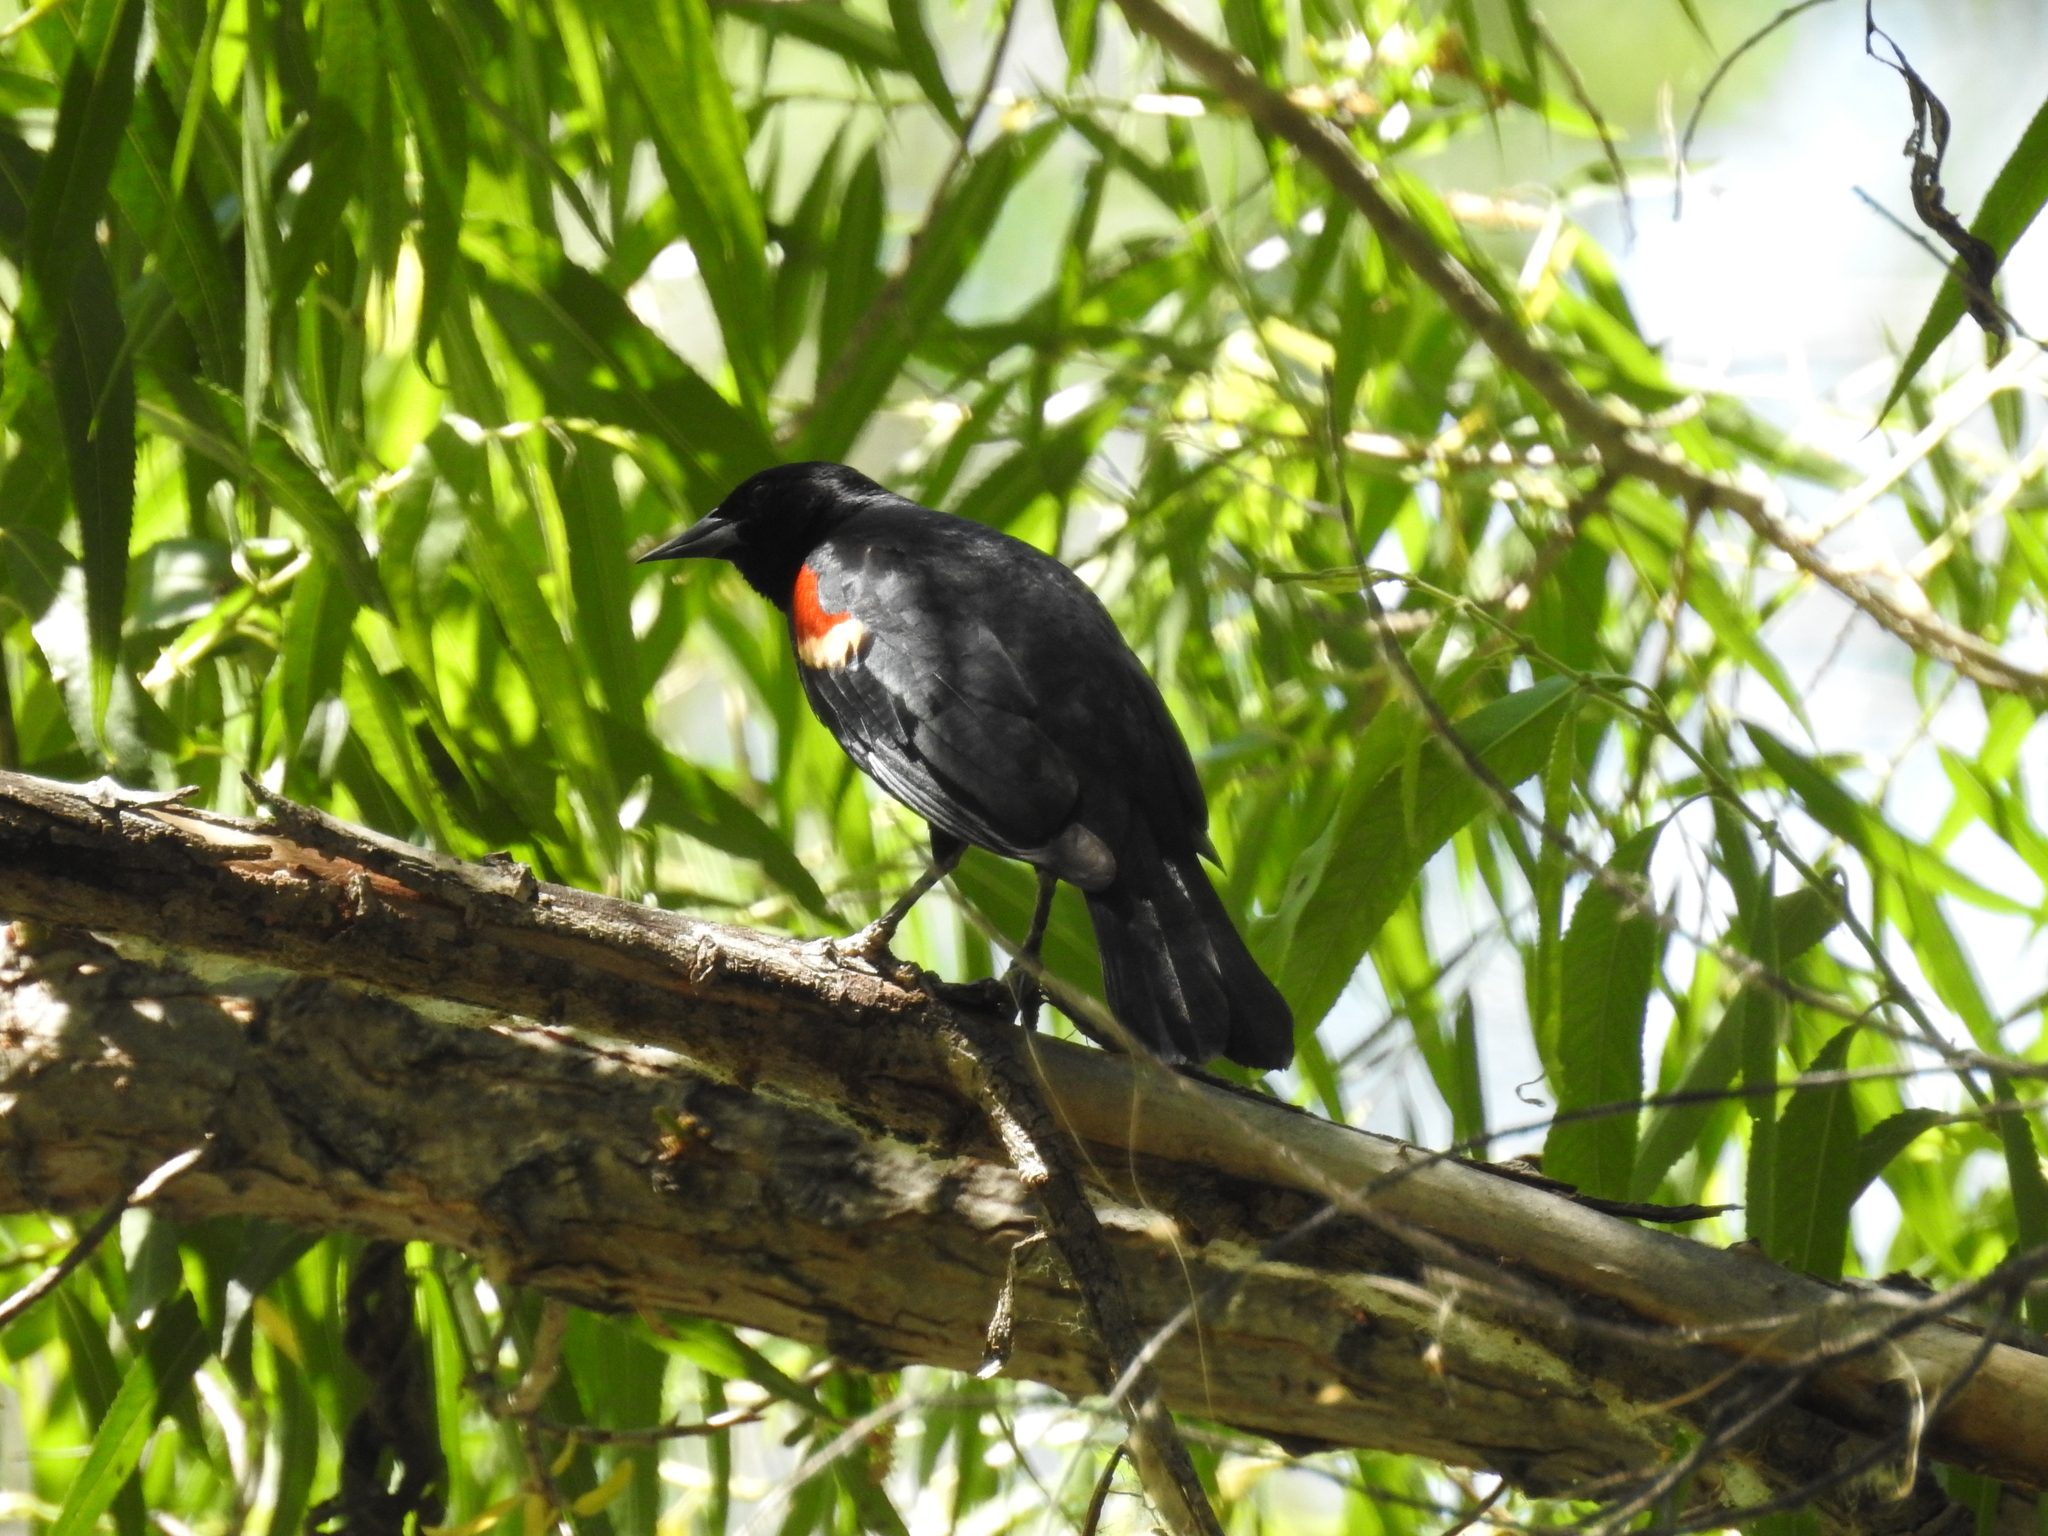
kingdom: Animalia
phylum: Chordata
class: Aves
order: Passeriformes
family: Icteridae
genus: Agelaius
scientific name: Agelaius phoeniceus
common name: Red-winged blackbird
